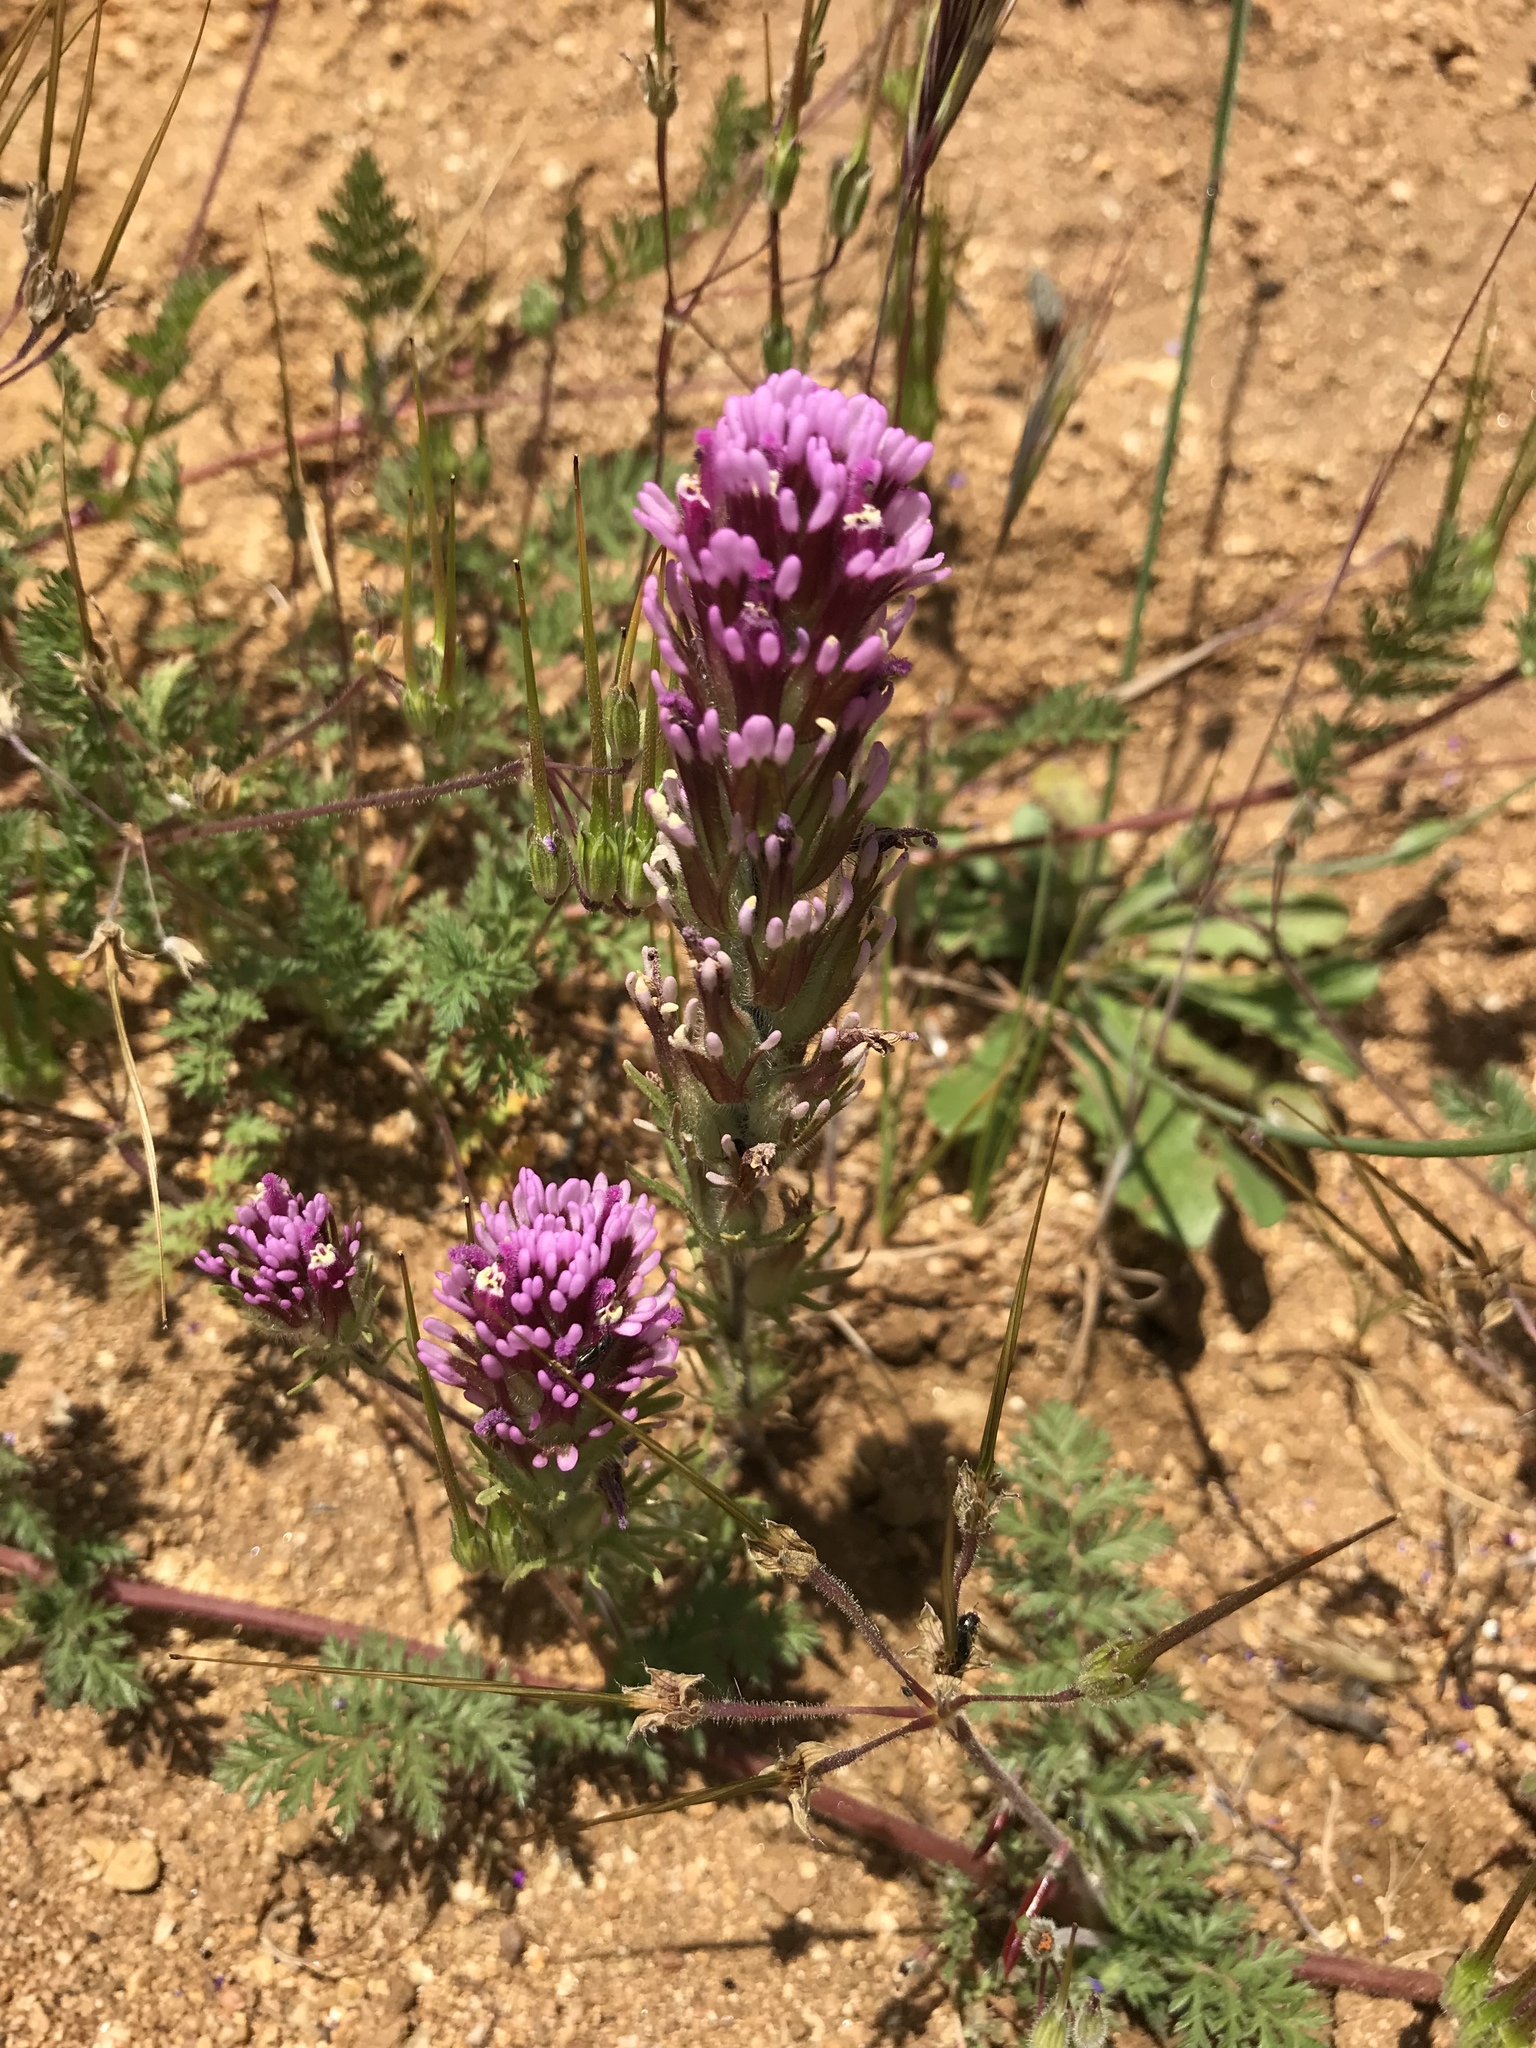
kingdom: Plantae
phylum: Tracheophyta
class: Magnoliopsida
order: Lamiales
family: Orobanchaceae
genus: Castilleja
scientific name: Castilleja exserta
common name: Purple owl-clover
